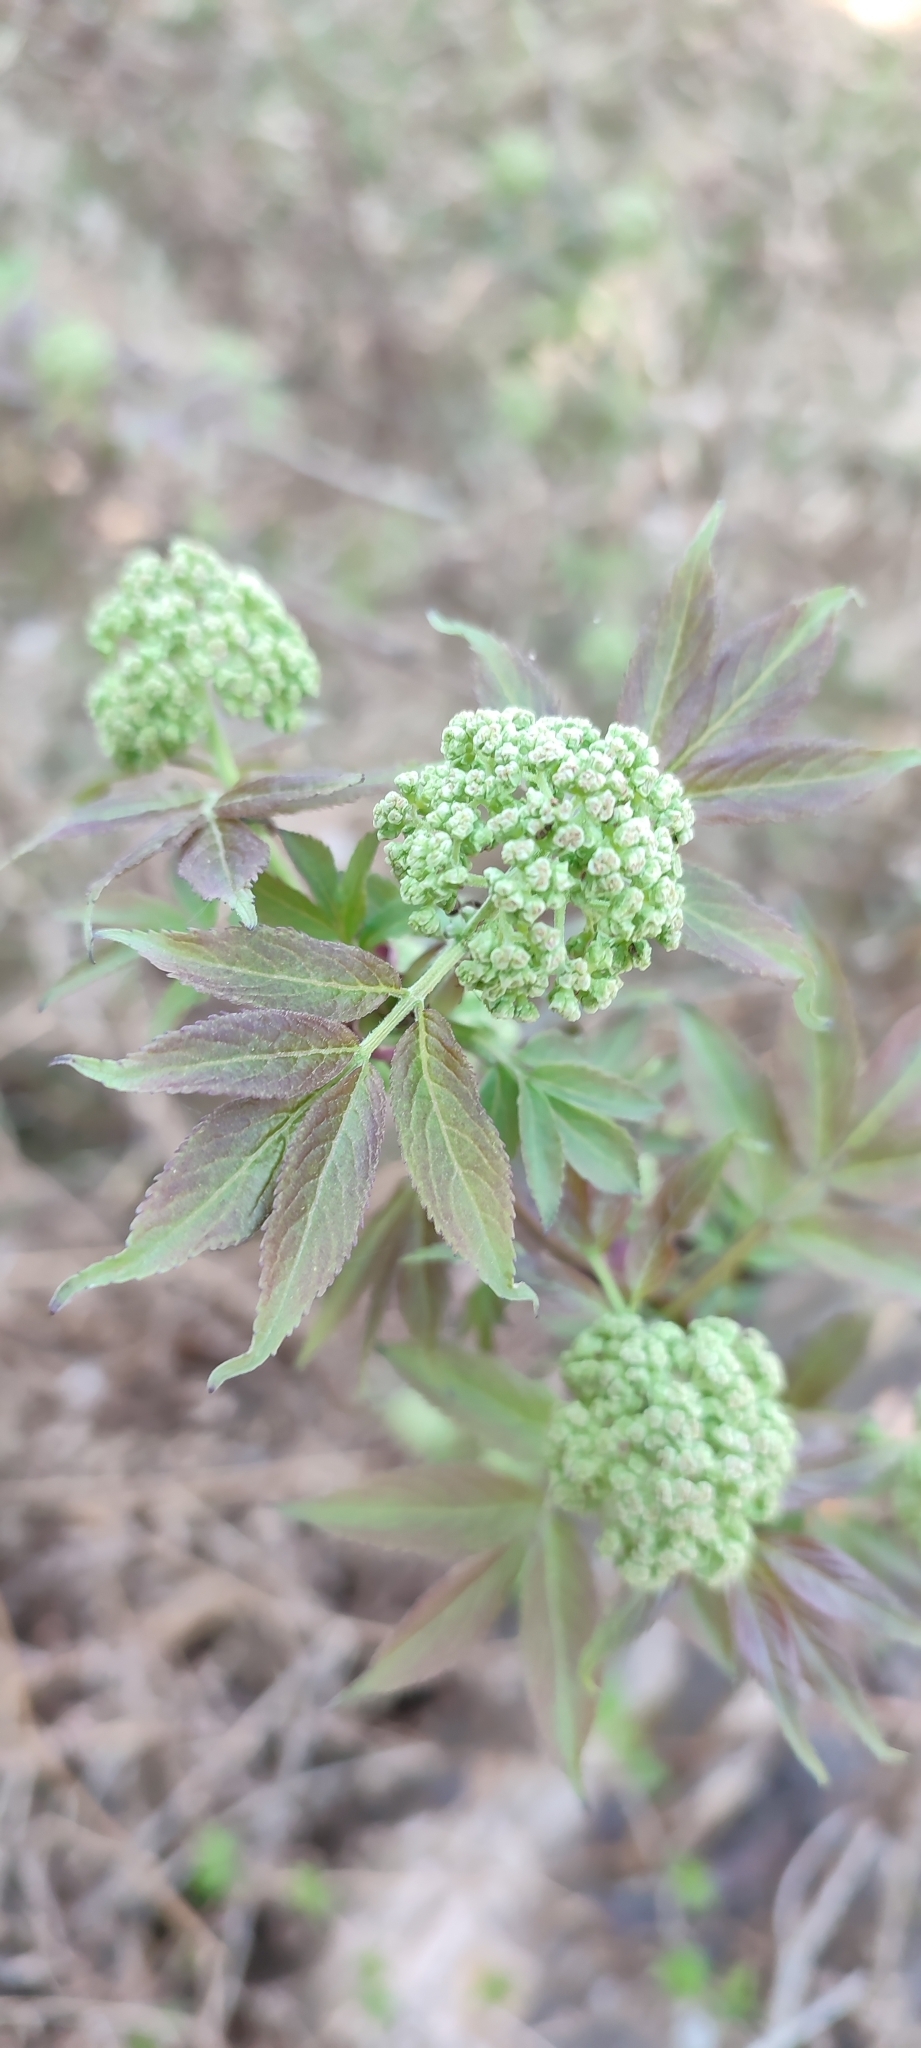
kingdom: Plantae
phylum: Tracheophyta
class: Magnoliopsida
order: Dipsacales
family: Viburnaceae
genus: Sambucus
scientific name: Sambucus racemosa
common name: Red-berried elder
